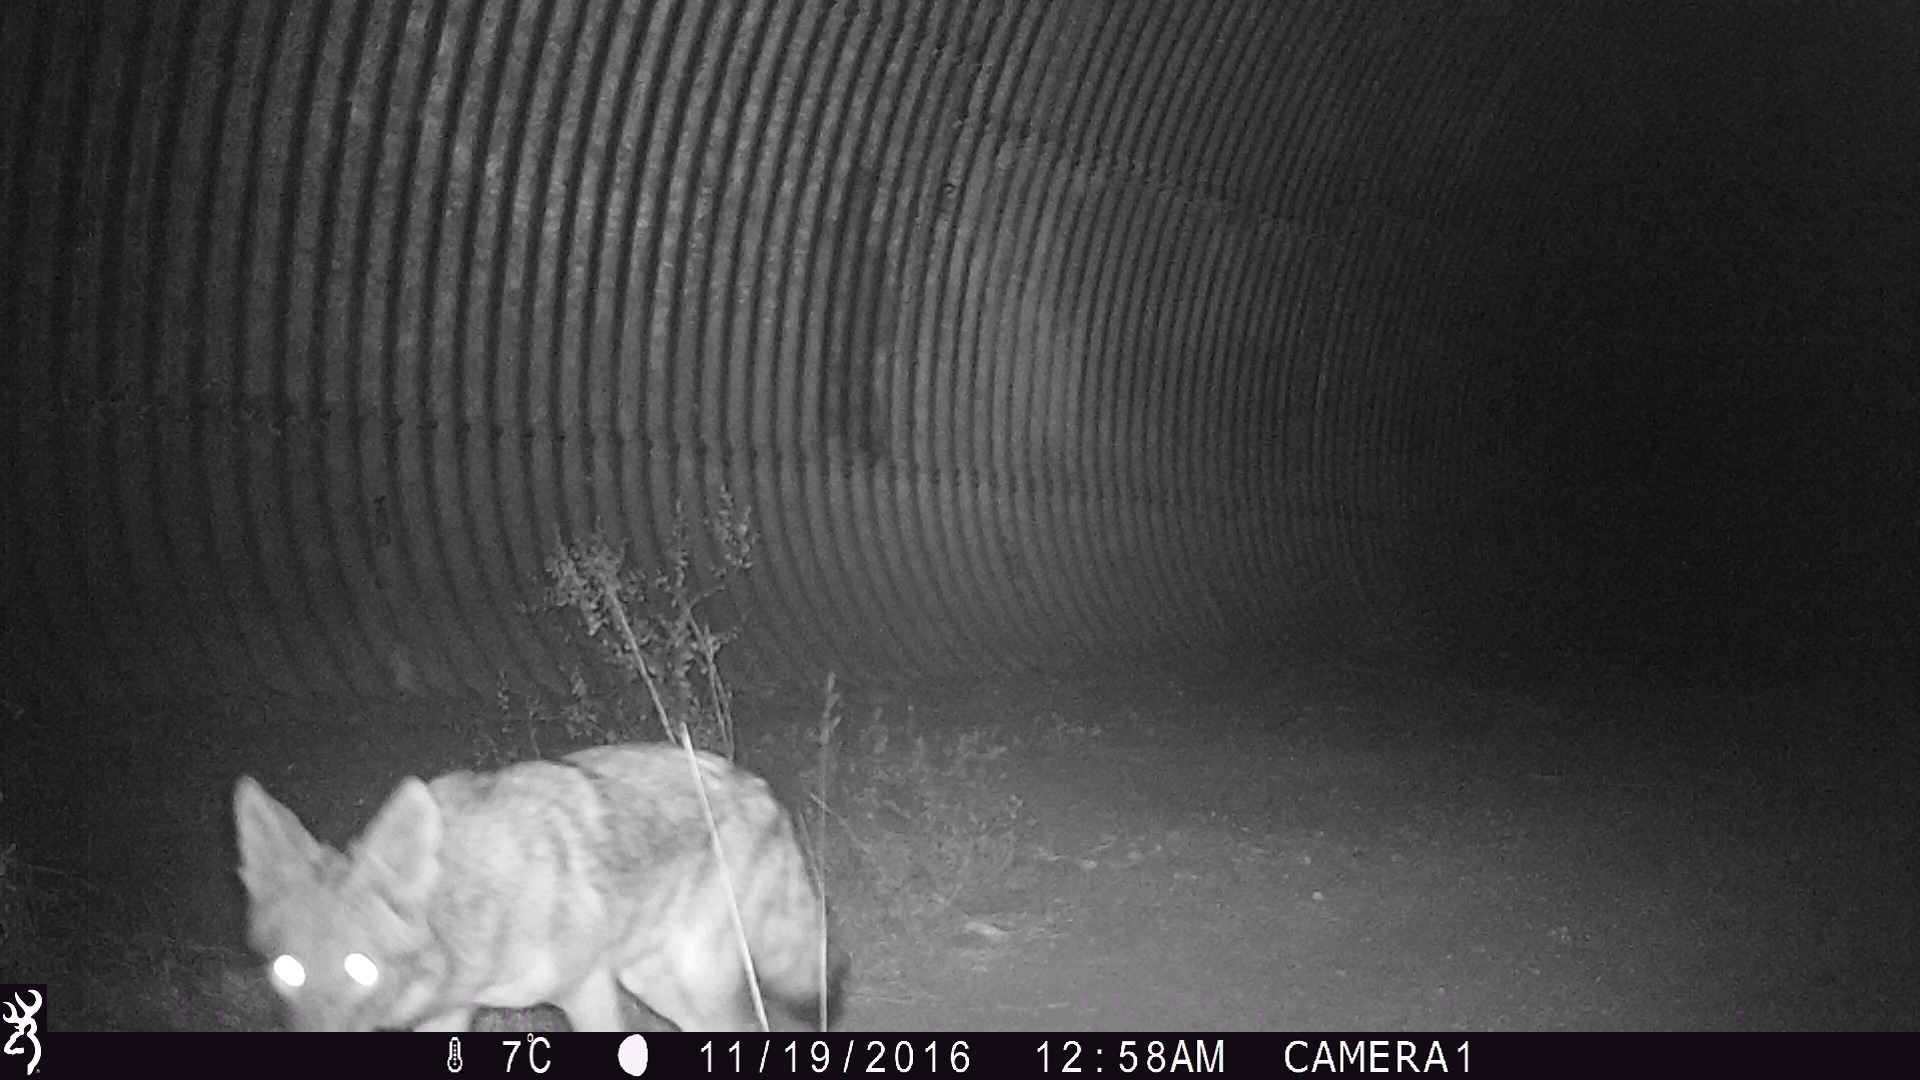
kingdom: Animalia
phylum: Chordata
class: Mammalia
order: Carnivora
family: Canidae
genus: Canis
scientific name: Canis latrans
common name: Coyote
